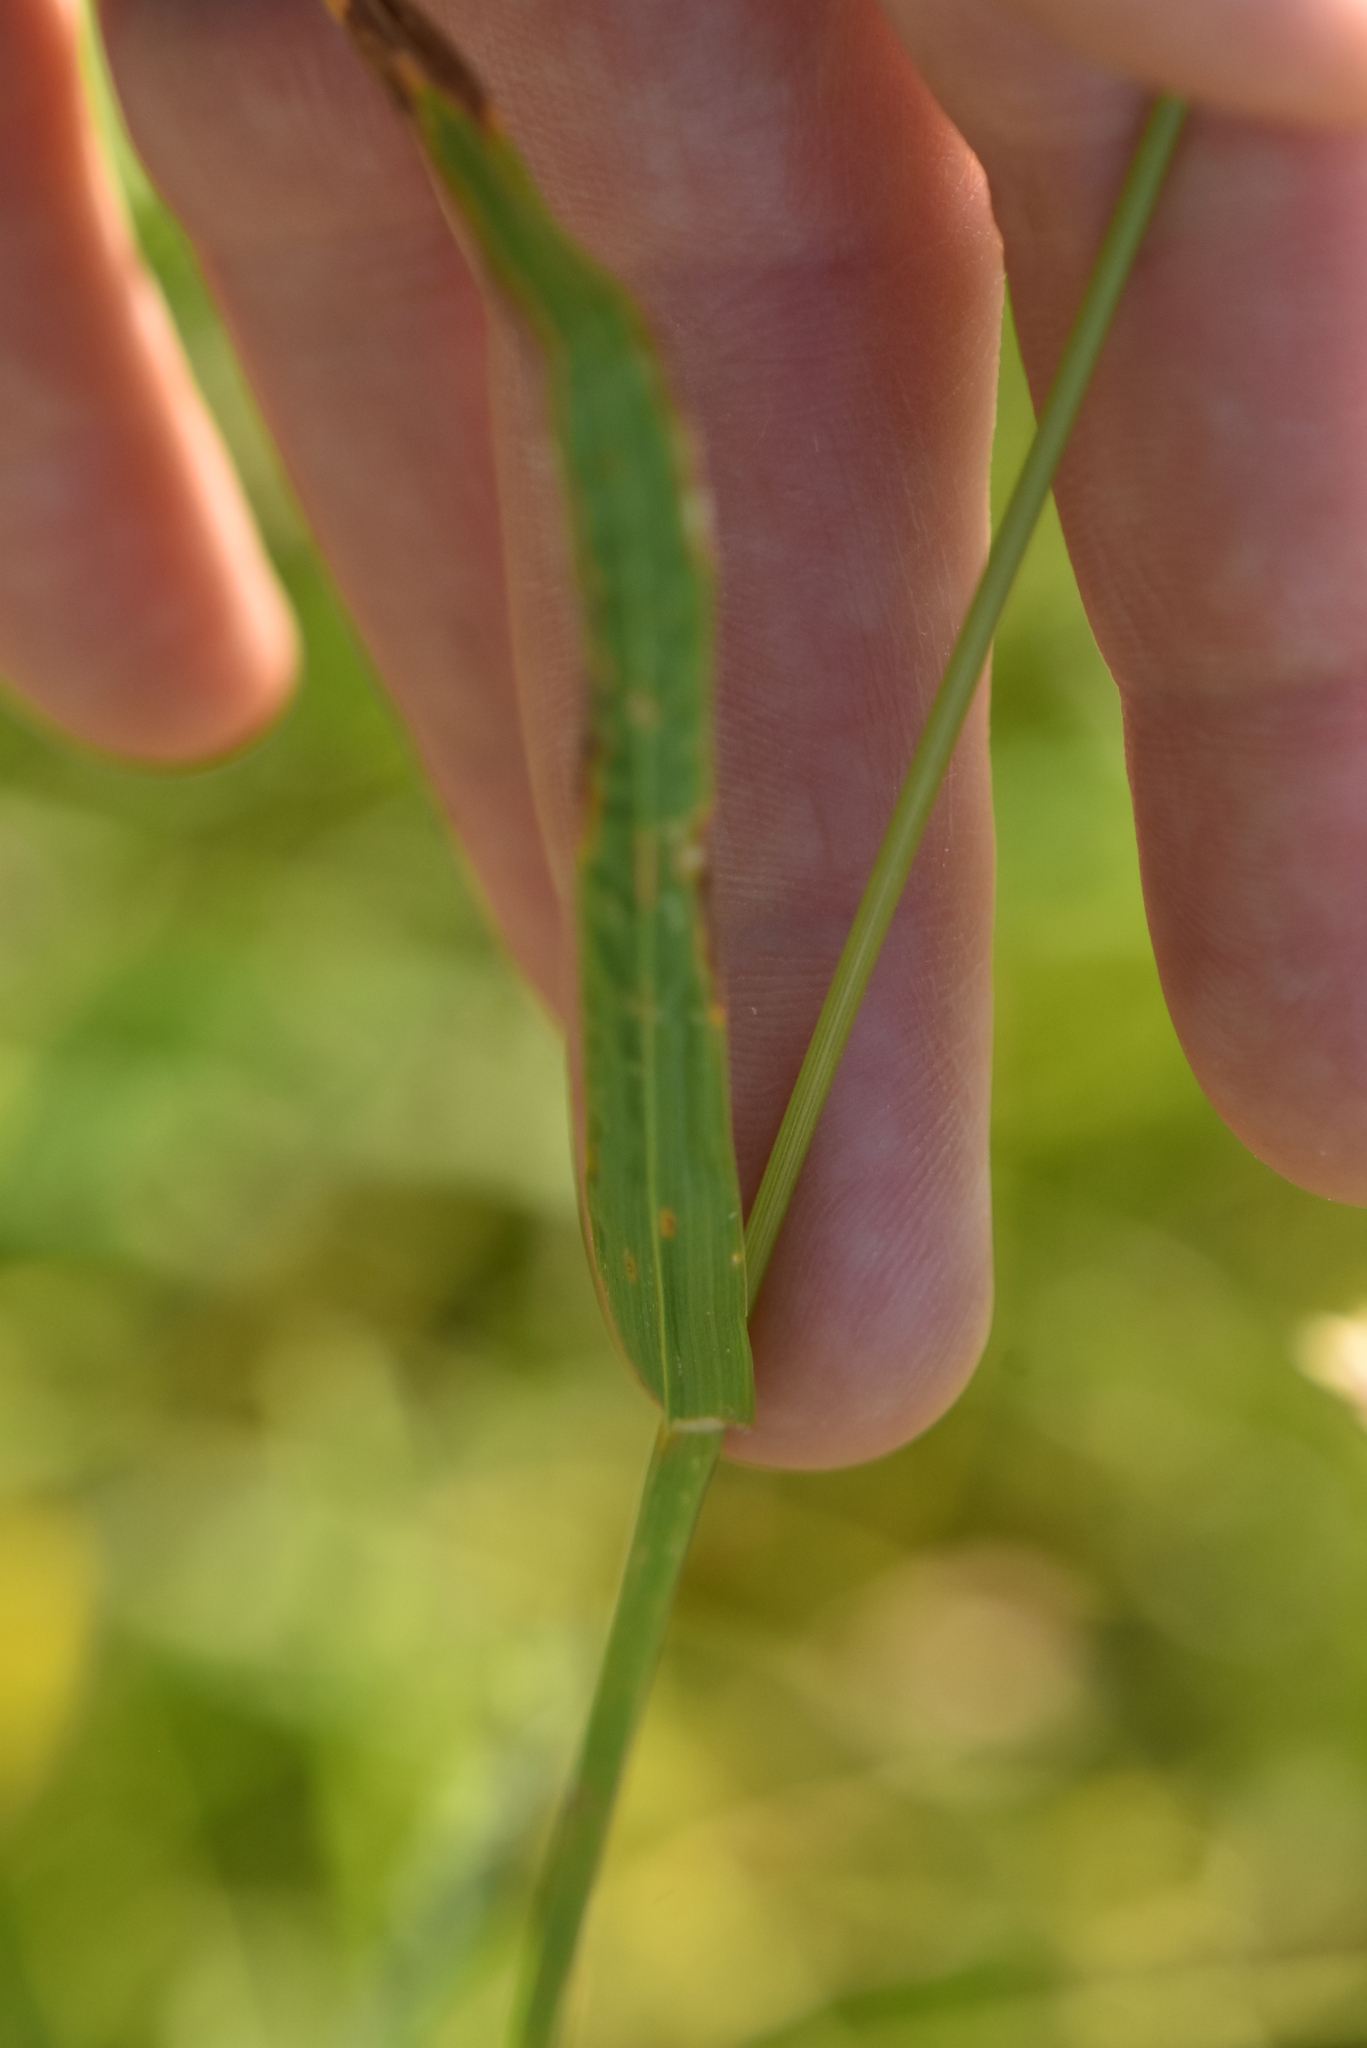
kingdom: Plantae
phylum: Tracheophyta
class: Liliopsida
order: Poales
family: Poaceae
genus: Dactylis
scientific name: Dactylis glomerata
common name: Orchardgrass
